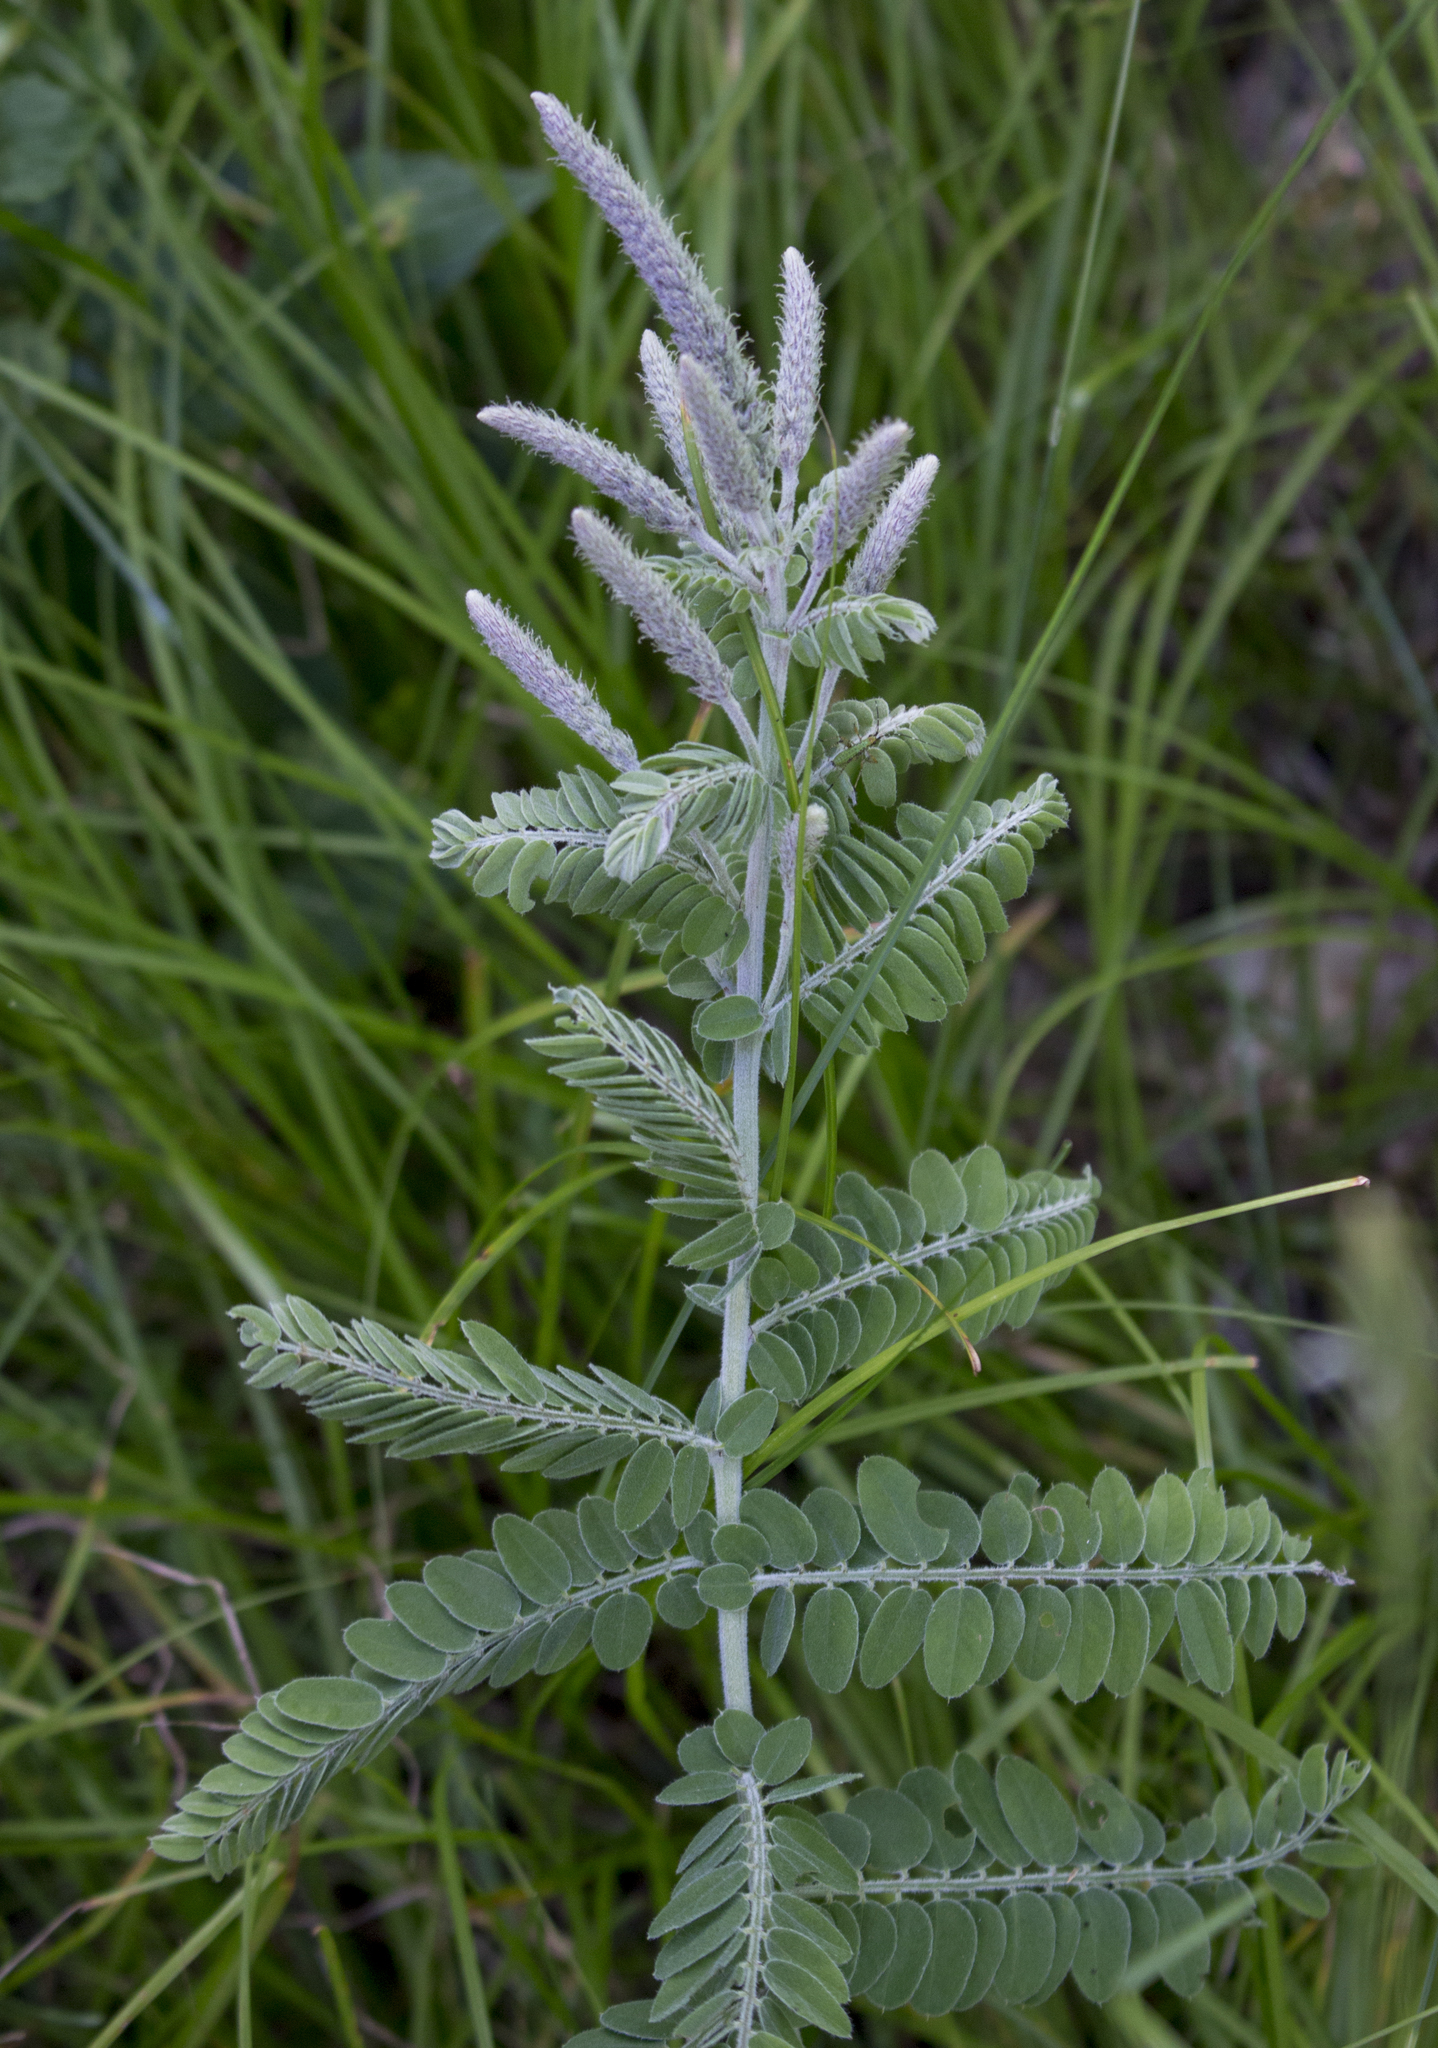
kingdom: Plantae
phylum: Tracheophyta
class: Magnoliopsida
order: Fabales
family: Fabaceae
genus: Amorpha
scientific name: Amorpha canescens
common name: Leadplant
